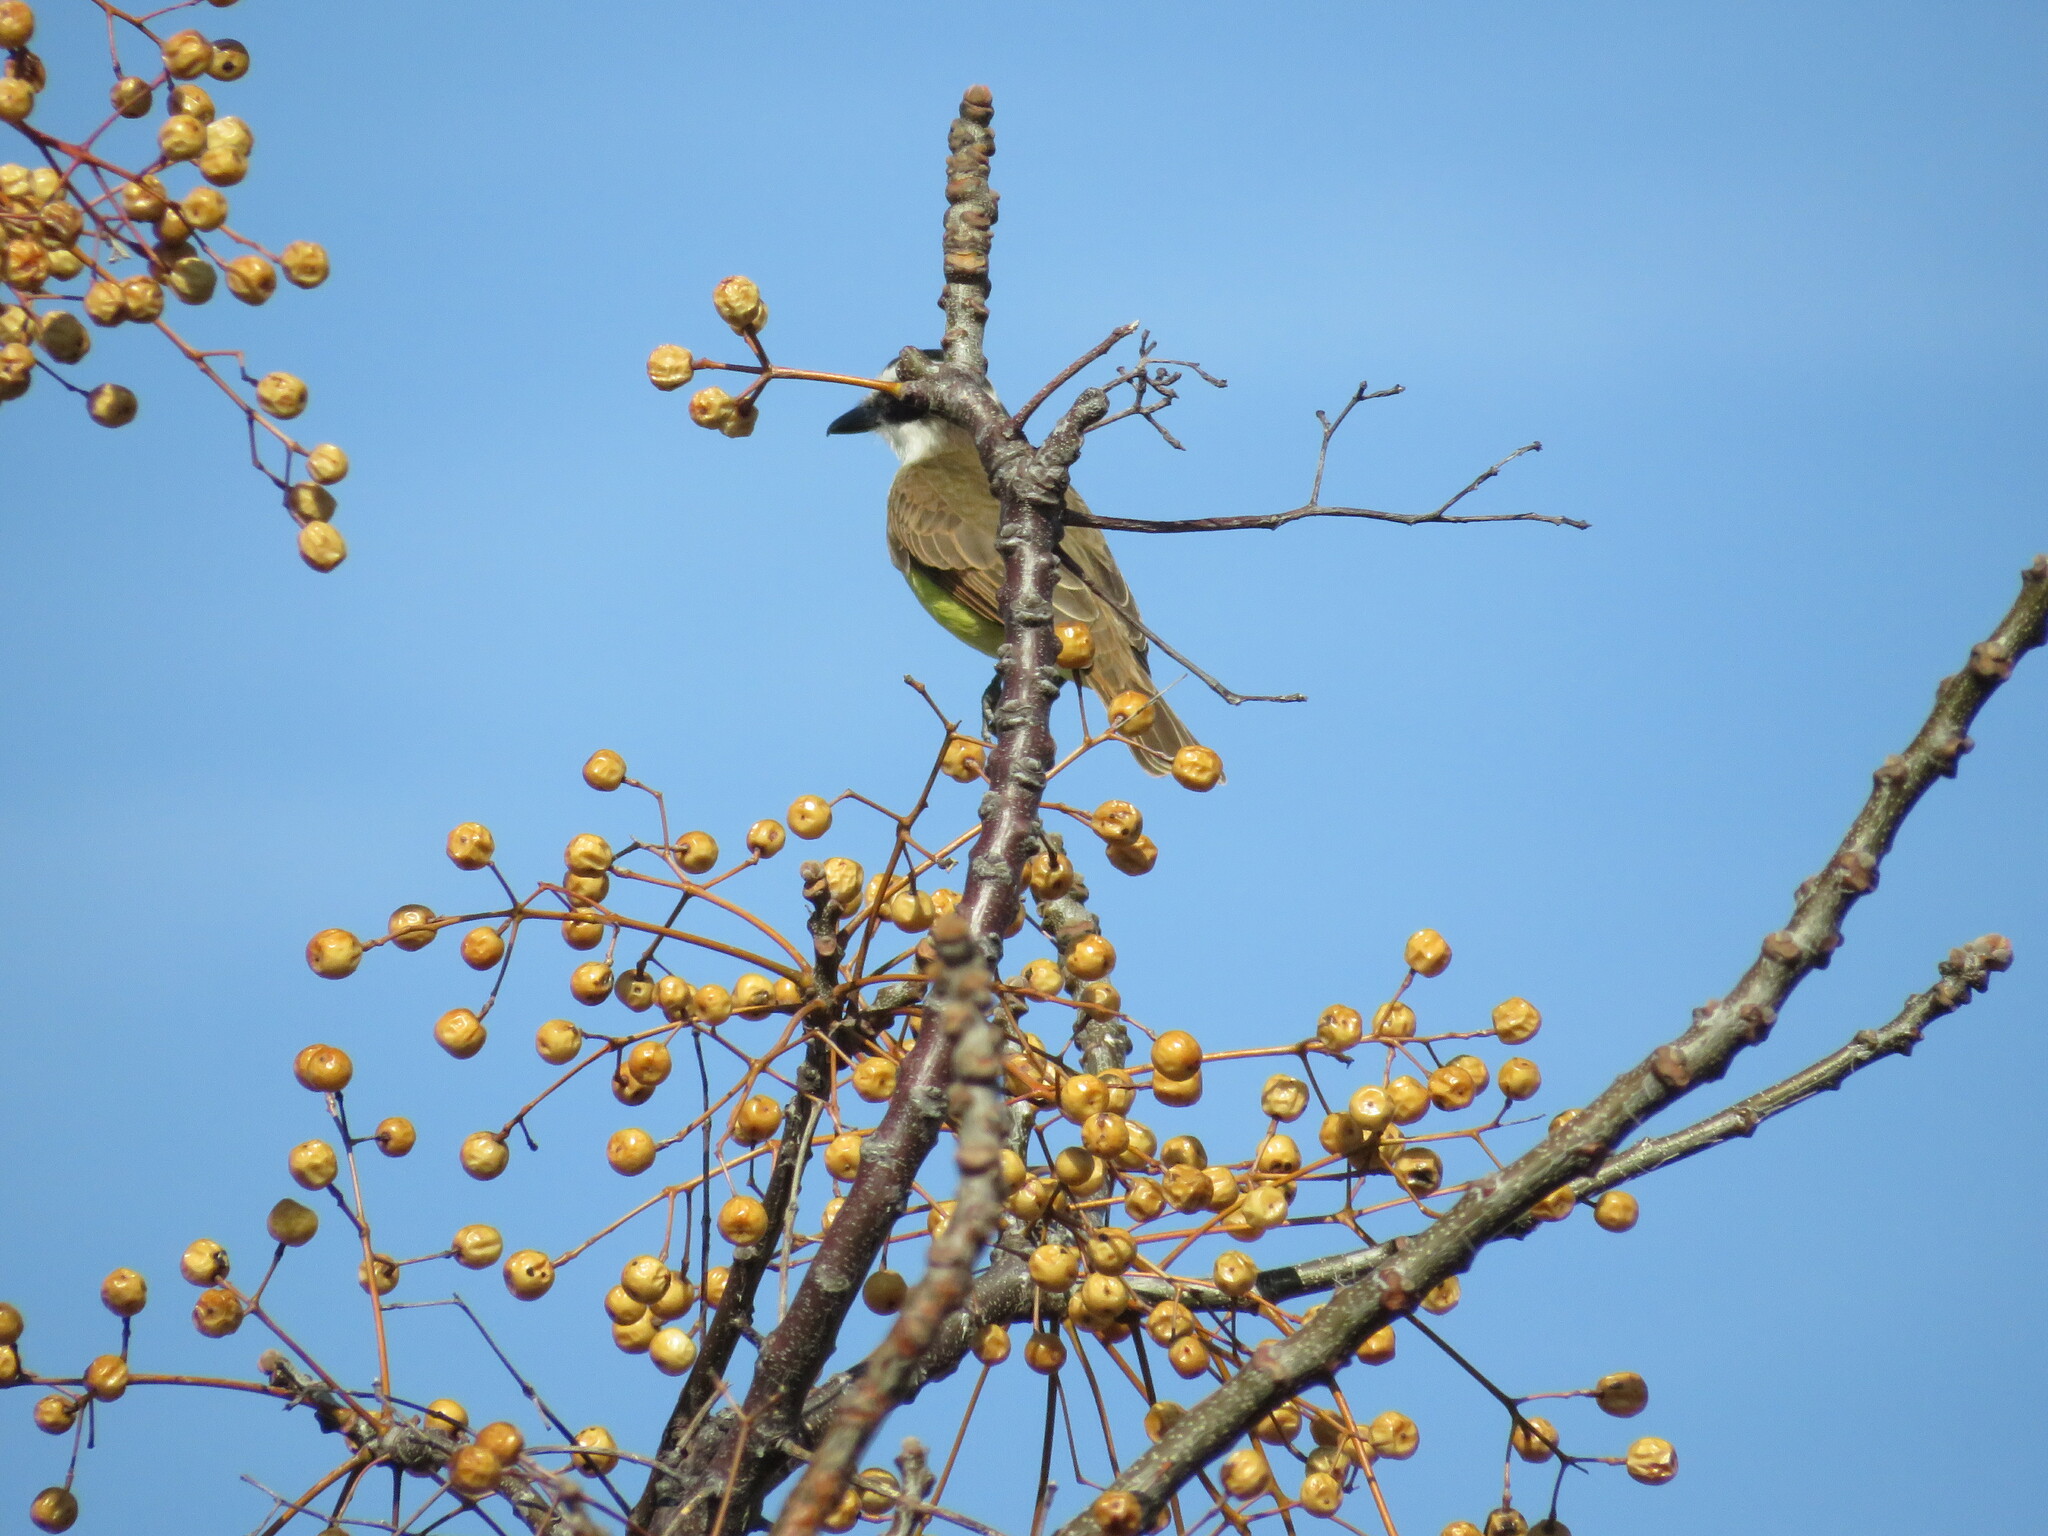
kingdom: Animalia
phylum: Chordata
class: Aves
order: Passeriformes
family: Tyrannidae
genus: Pitangus
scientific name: Pitangus sulphuratus
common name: Great kiskadee
